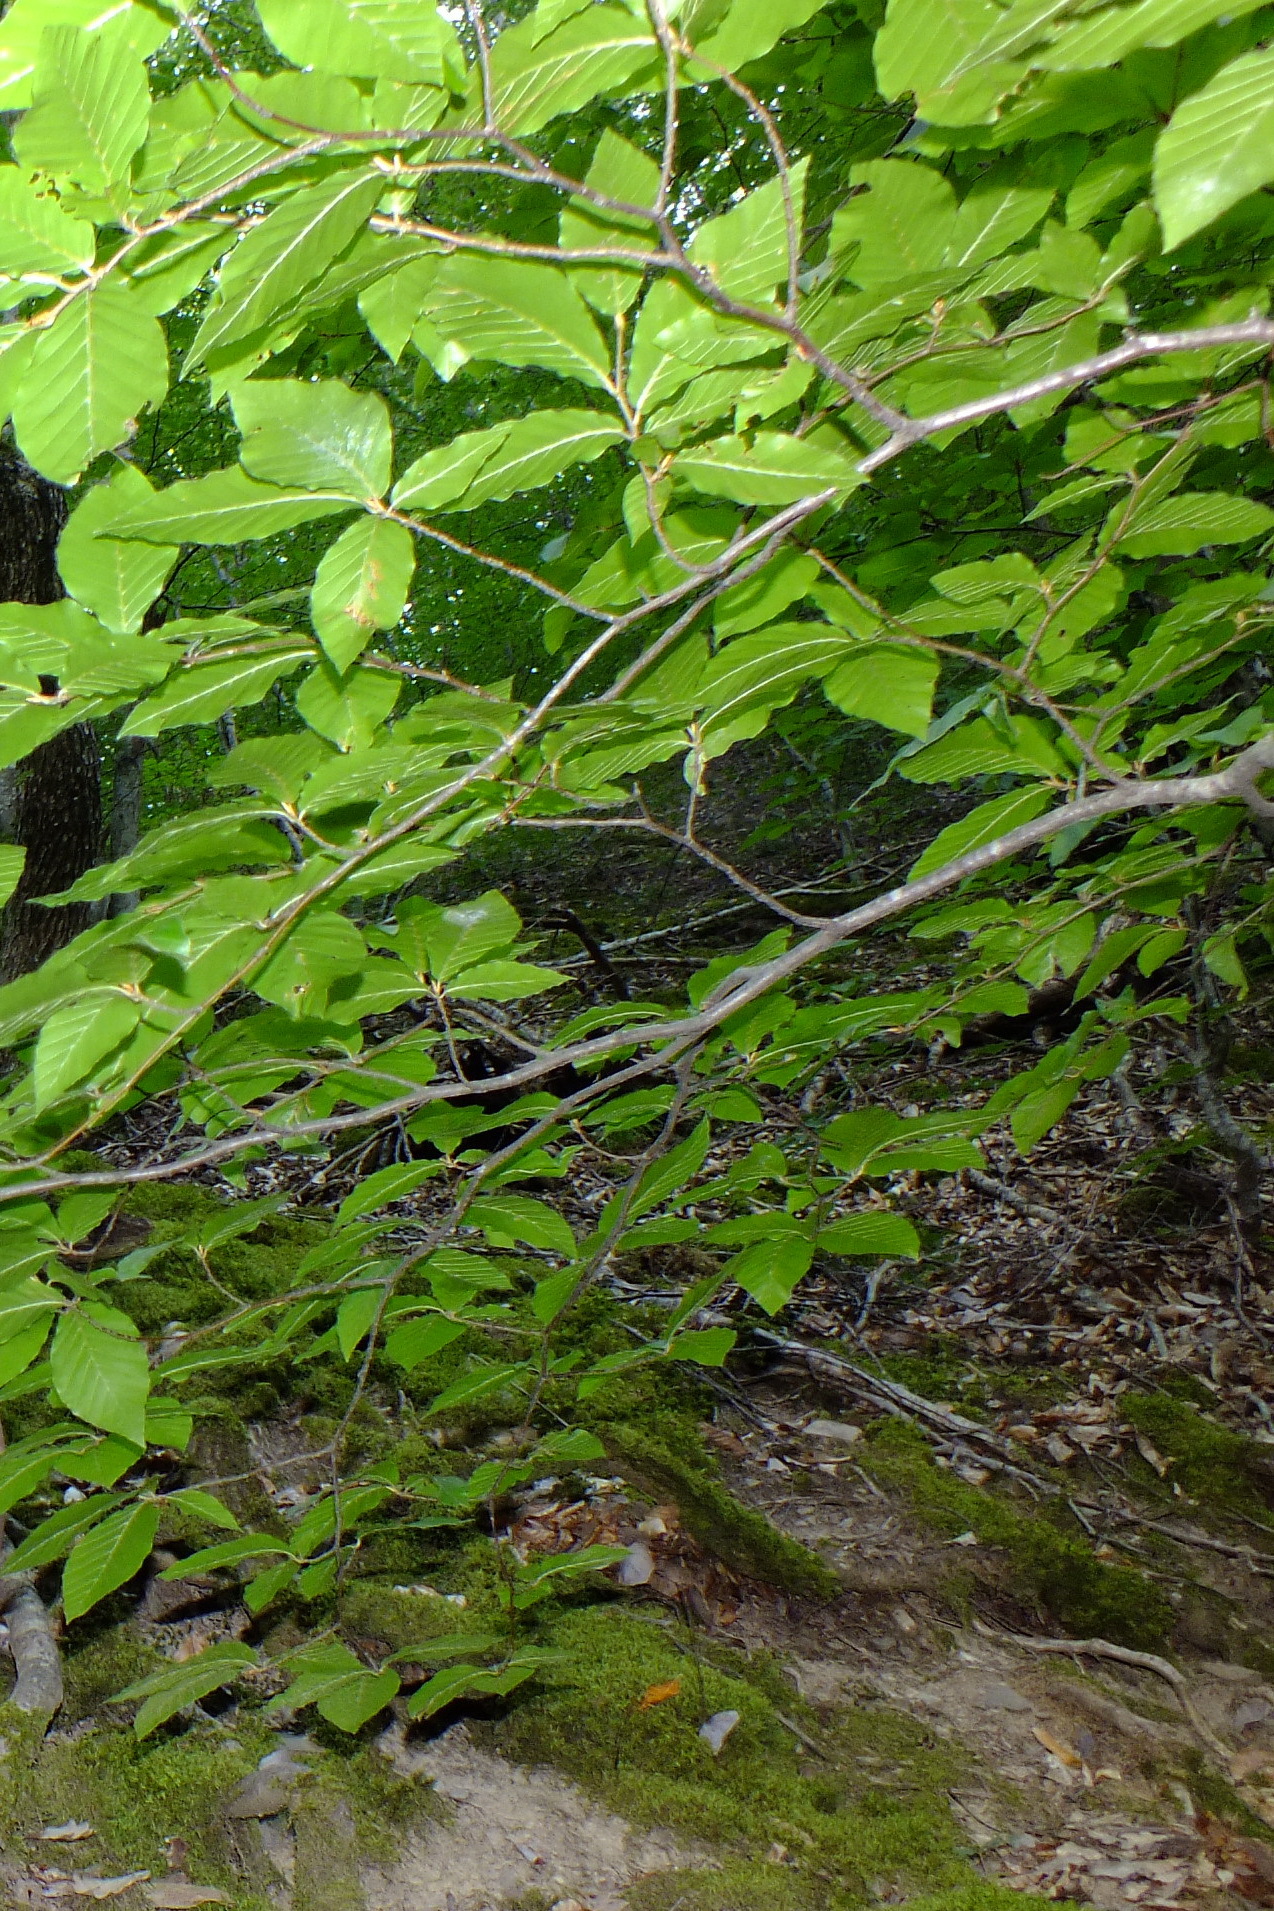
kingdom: Plantae
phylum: Tracheophyta
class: Magnoliopsida
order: Fagales
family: Fagaceae
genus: Fagus
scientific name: Fagus sylvatica
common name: Beech
